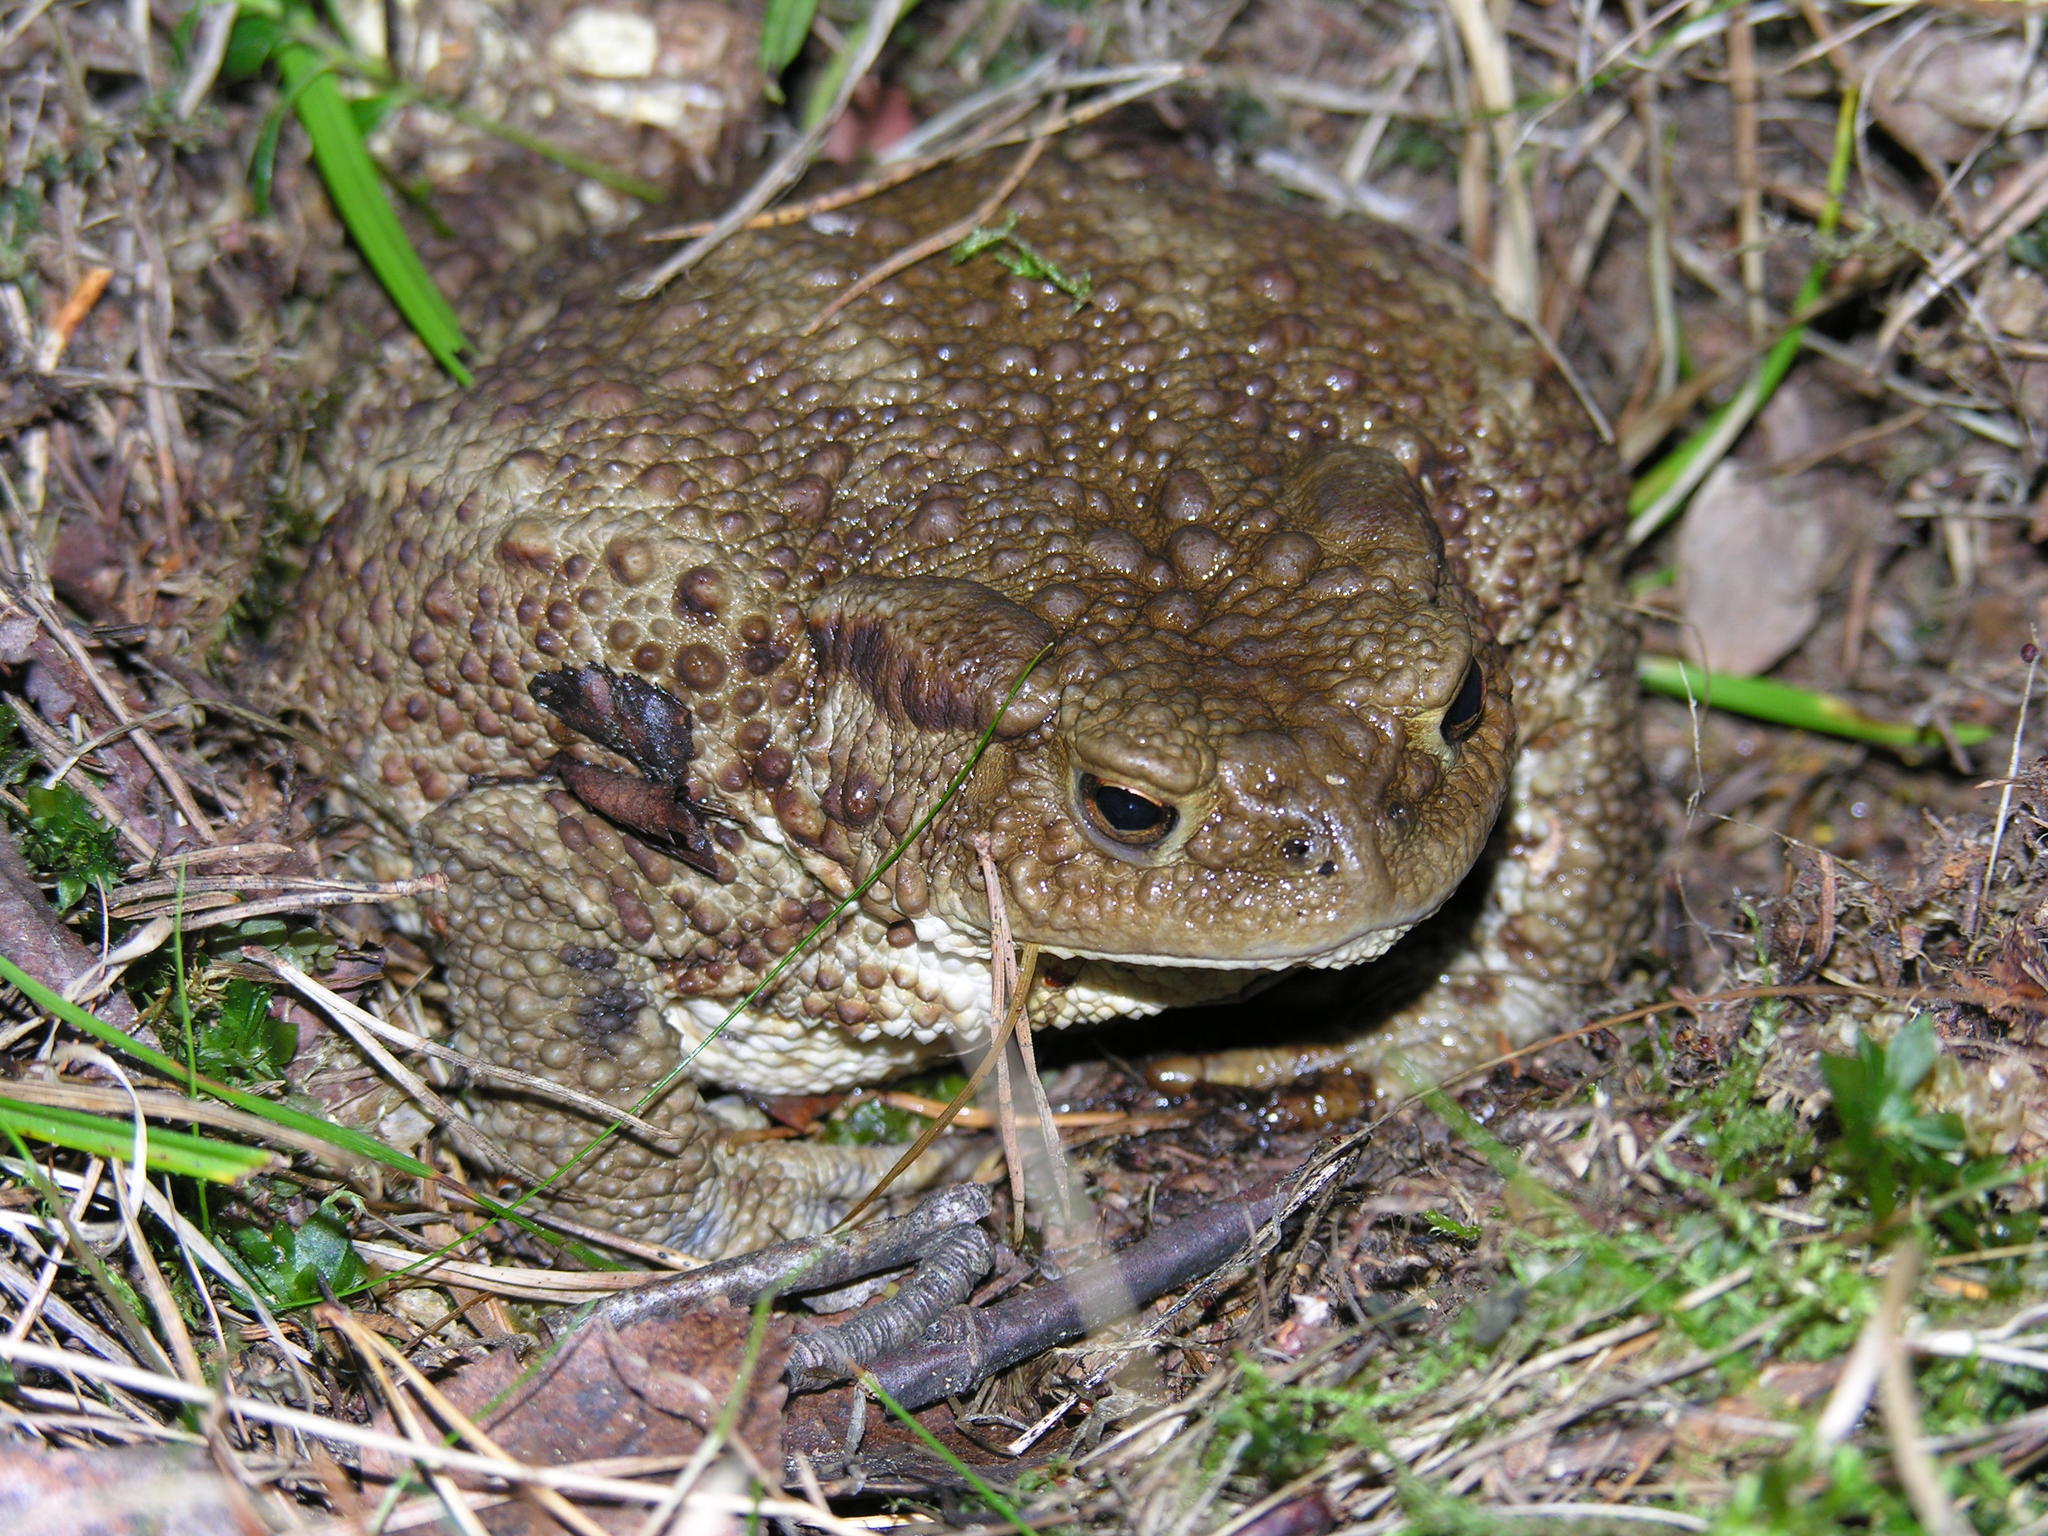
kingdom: Animalia
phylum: Chordata
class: Amphibia
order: Anura
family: Bufonidae
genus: Bufo
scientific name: Bufo bufo
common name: Common toad
